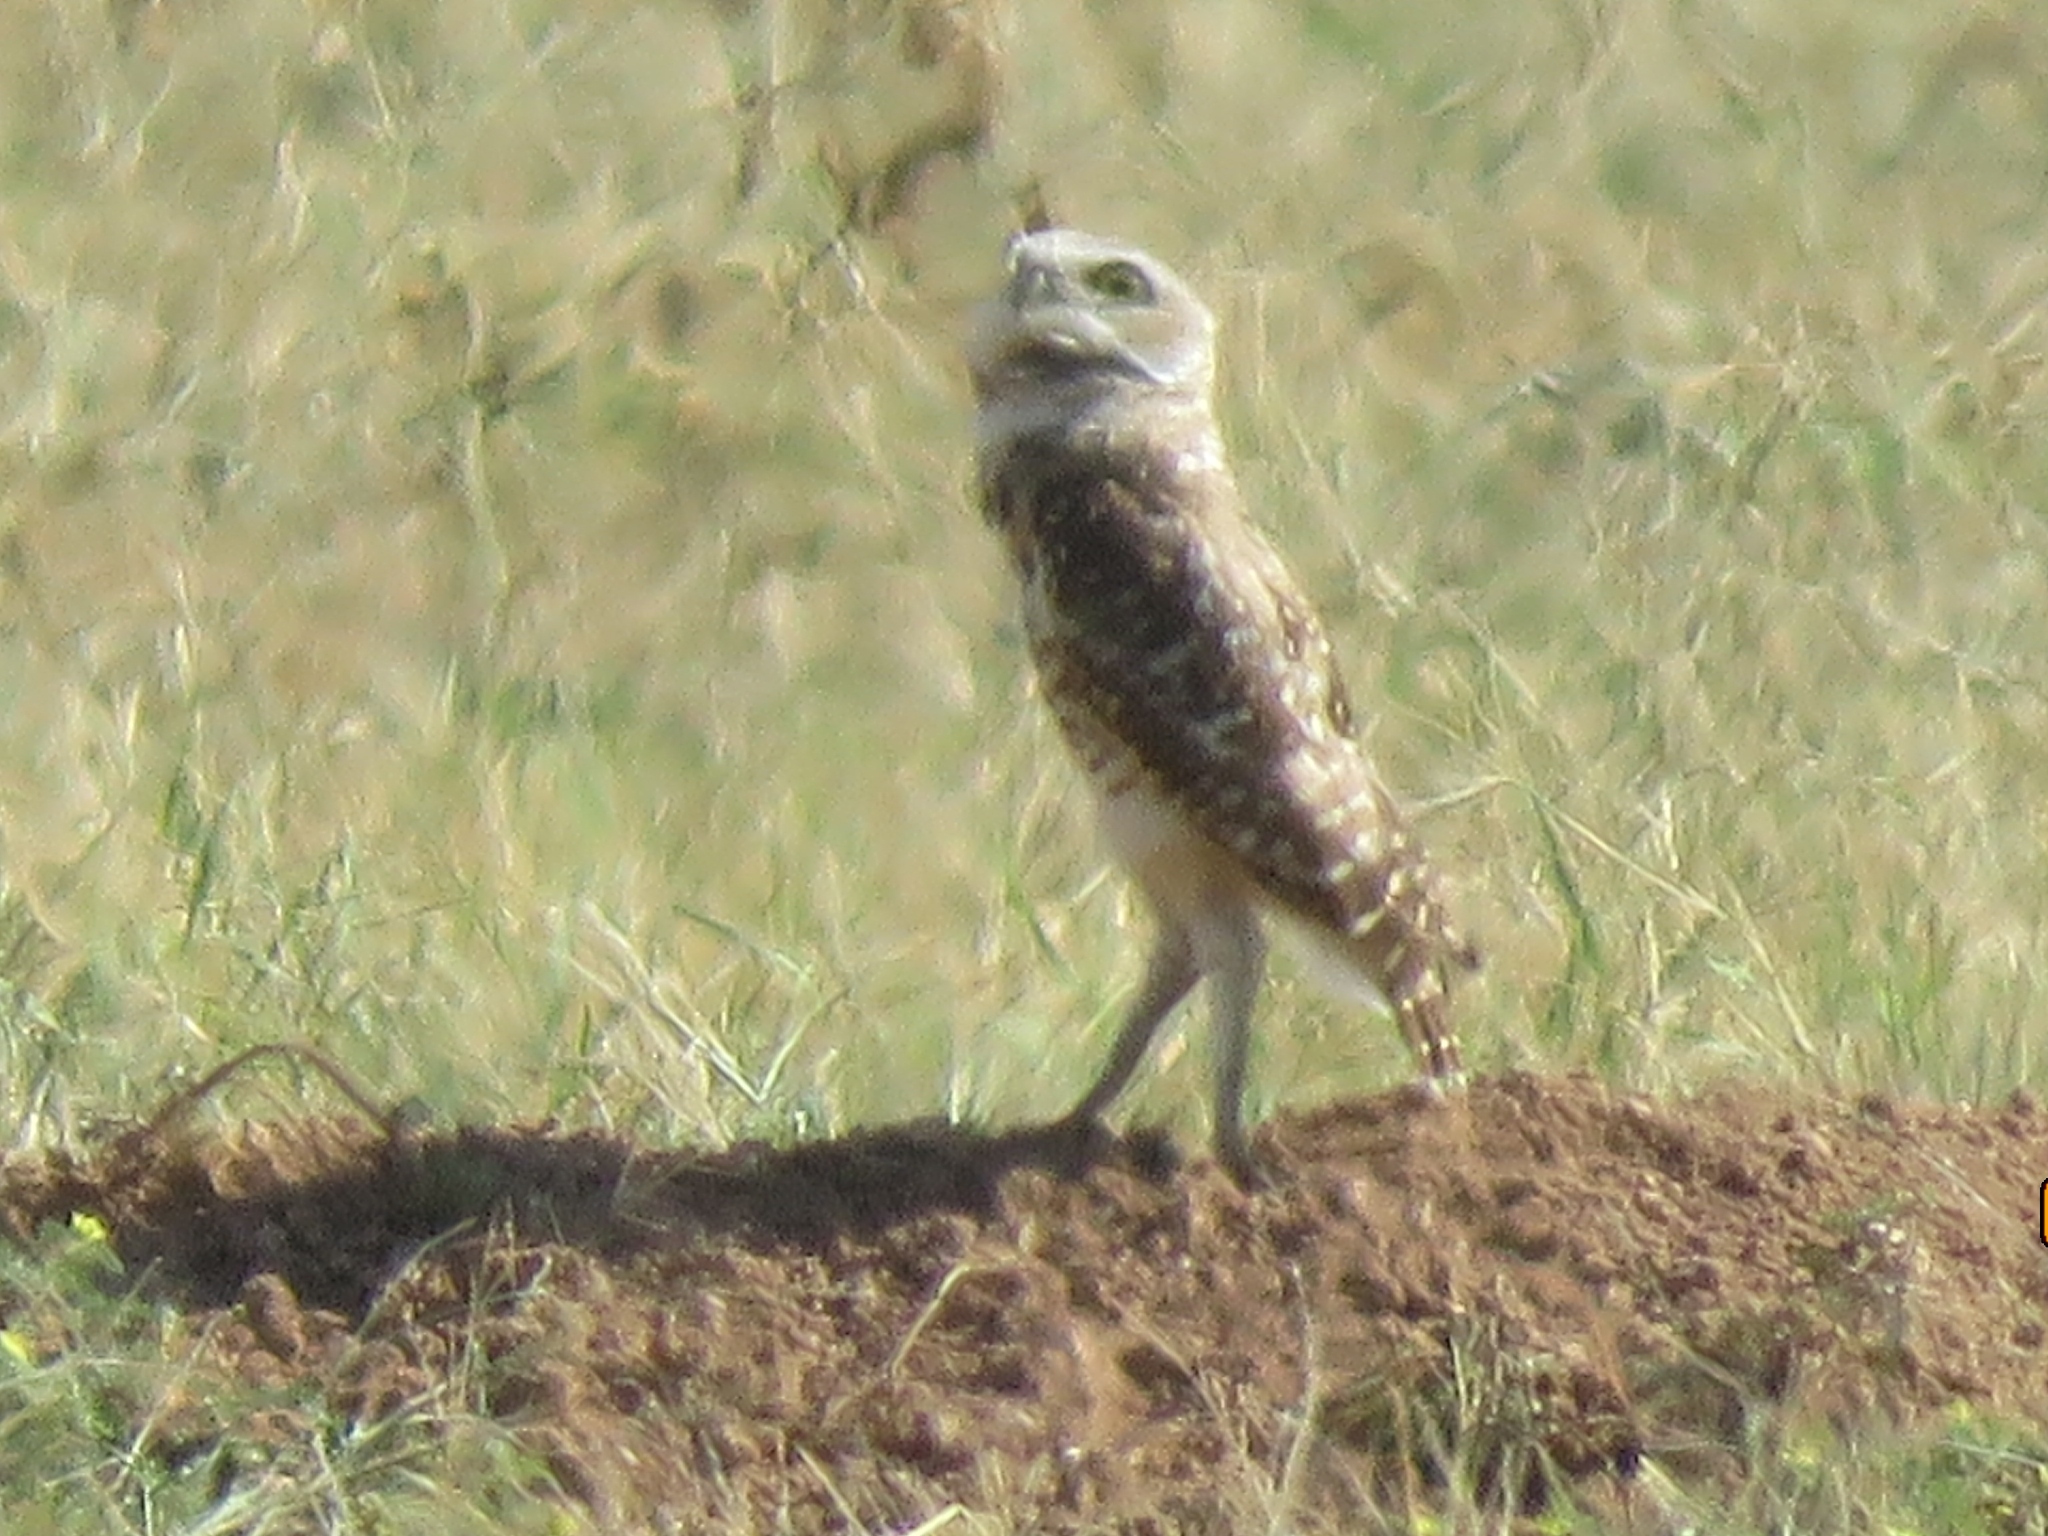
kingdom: Animalia
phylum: Chordata
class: Aves
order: Strigiformes
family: Strigidae
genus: Athene
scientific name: Athene cunicularia
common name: Burrowing owl
